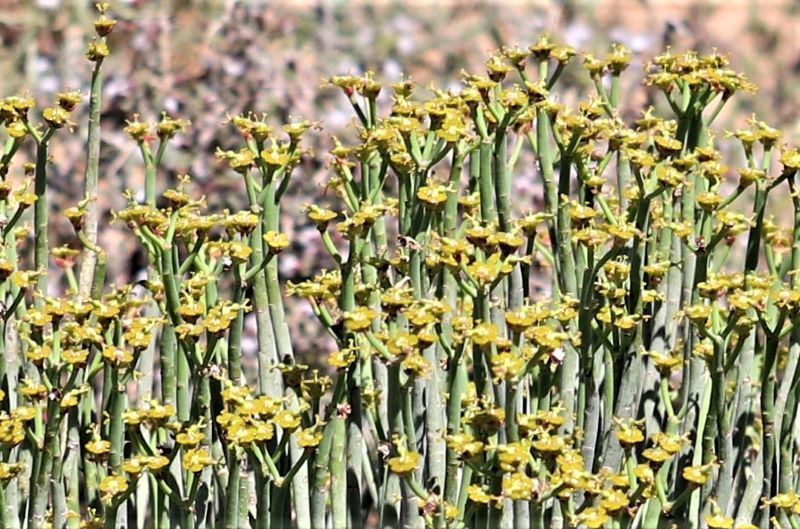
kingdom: Plantae
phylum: Tracheophyta
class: Magnoliopsida
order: Malpighiales
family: Euphorbiaceae
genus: Euphorbia
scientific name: Euphorbia mauritanica
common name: Jackal's-food
